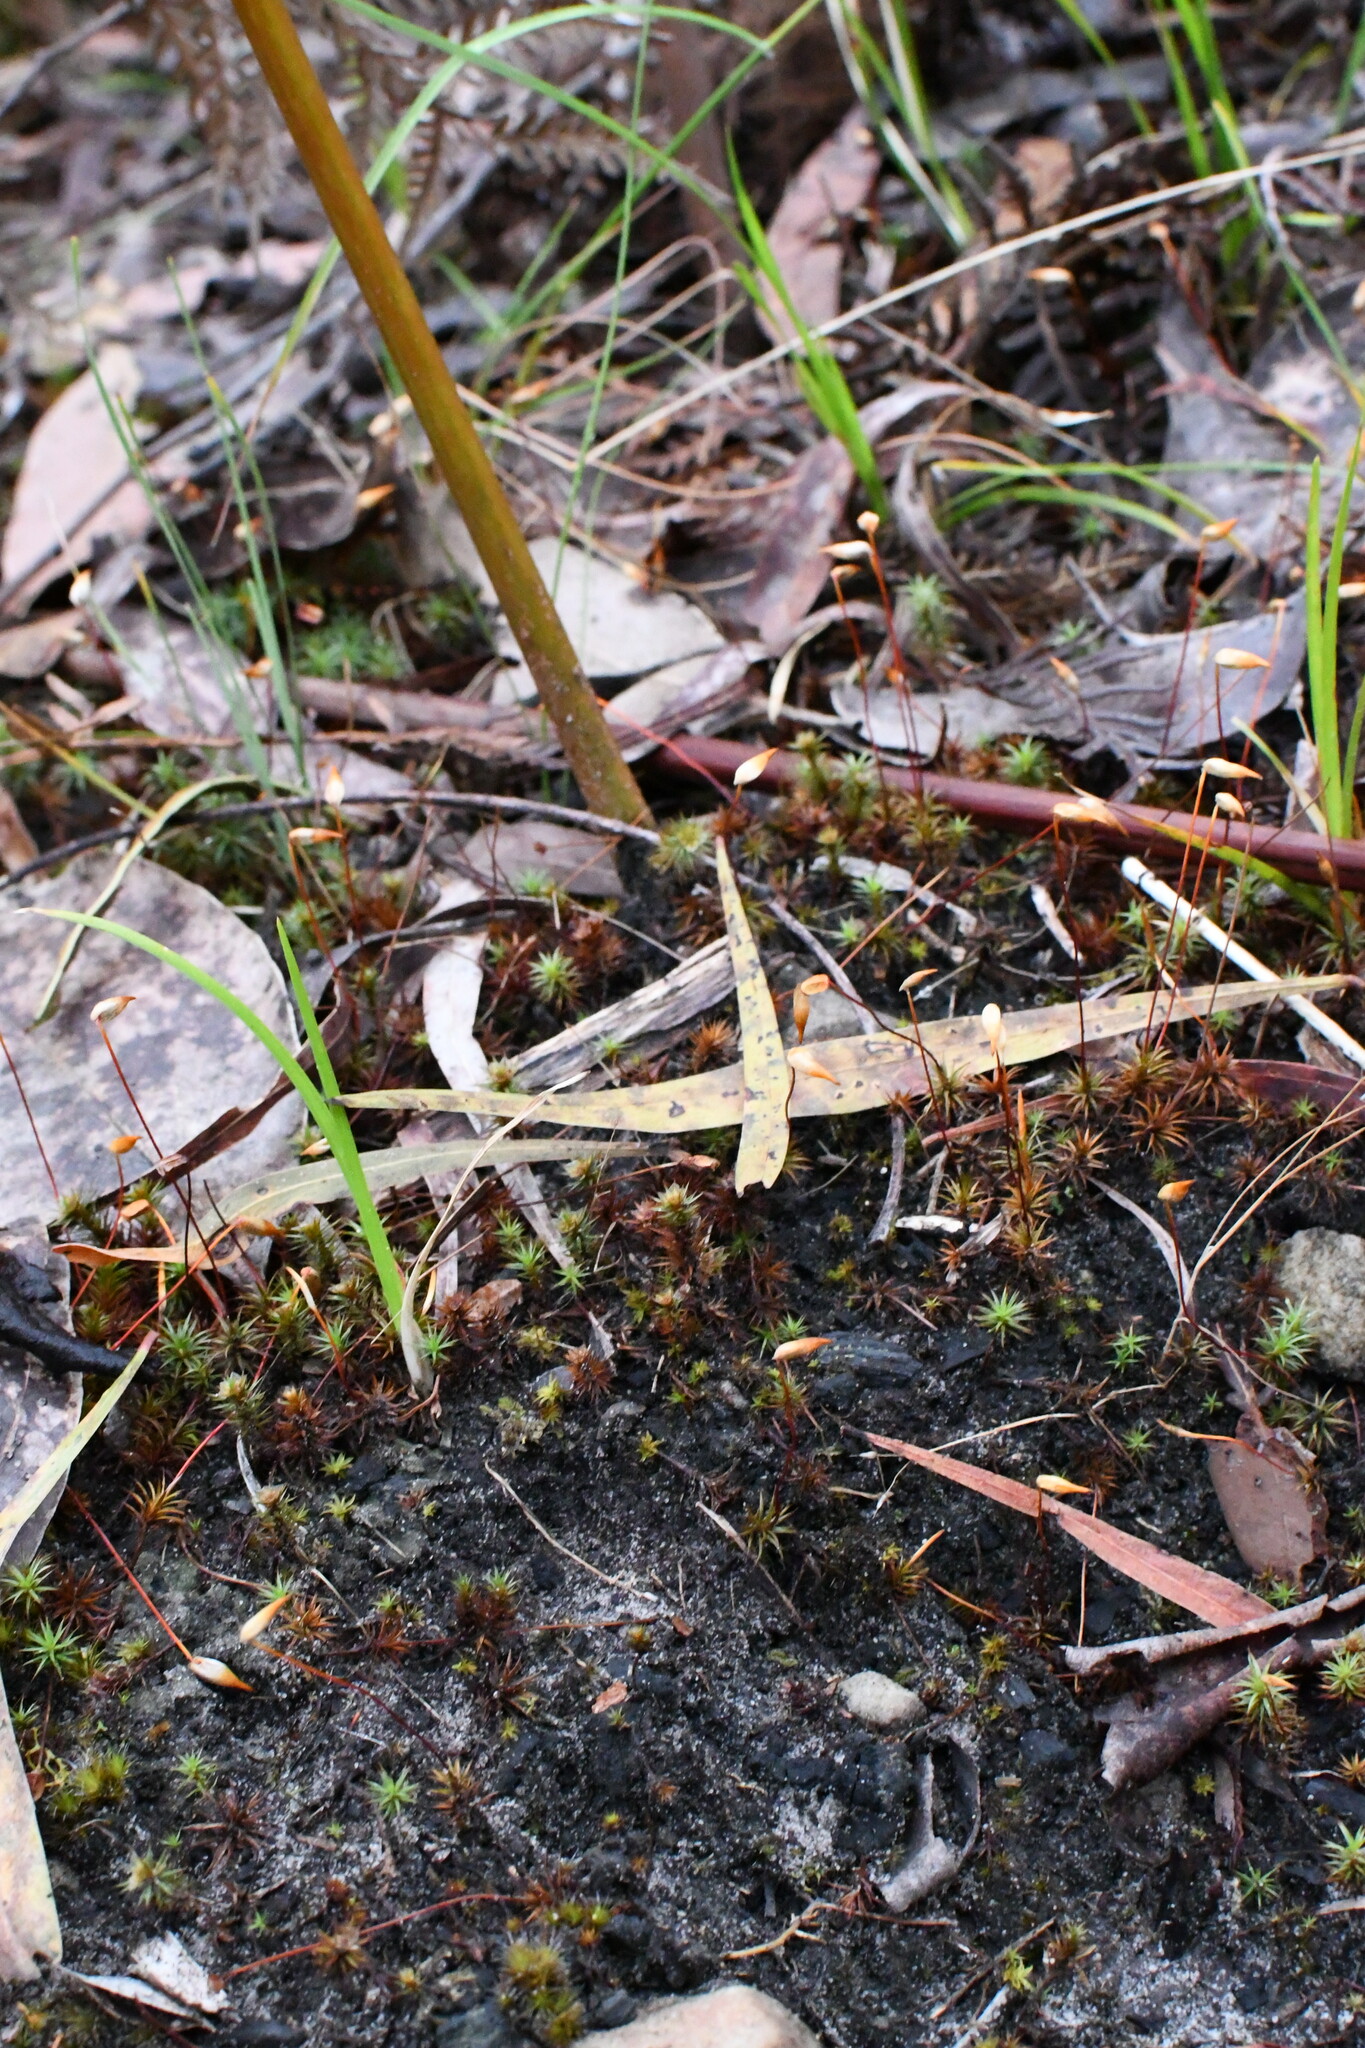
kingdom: Plantae
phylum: Bryophyta
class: Polytrichopsida
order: Polytrichales
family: Polytrichaceae
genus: Polytrichum
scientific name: Polytrichum juniperinum
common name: Juniper haircap moss
